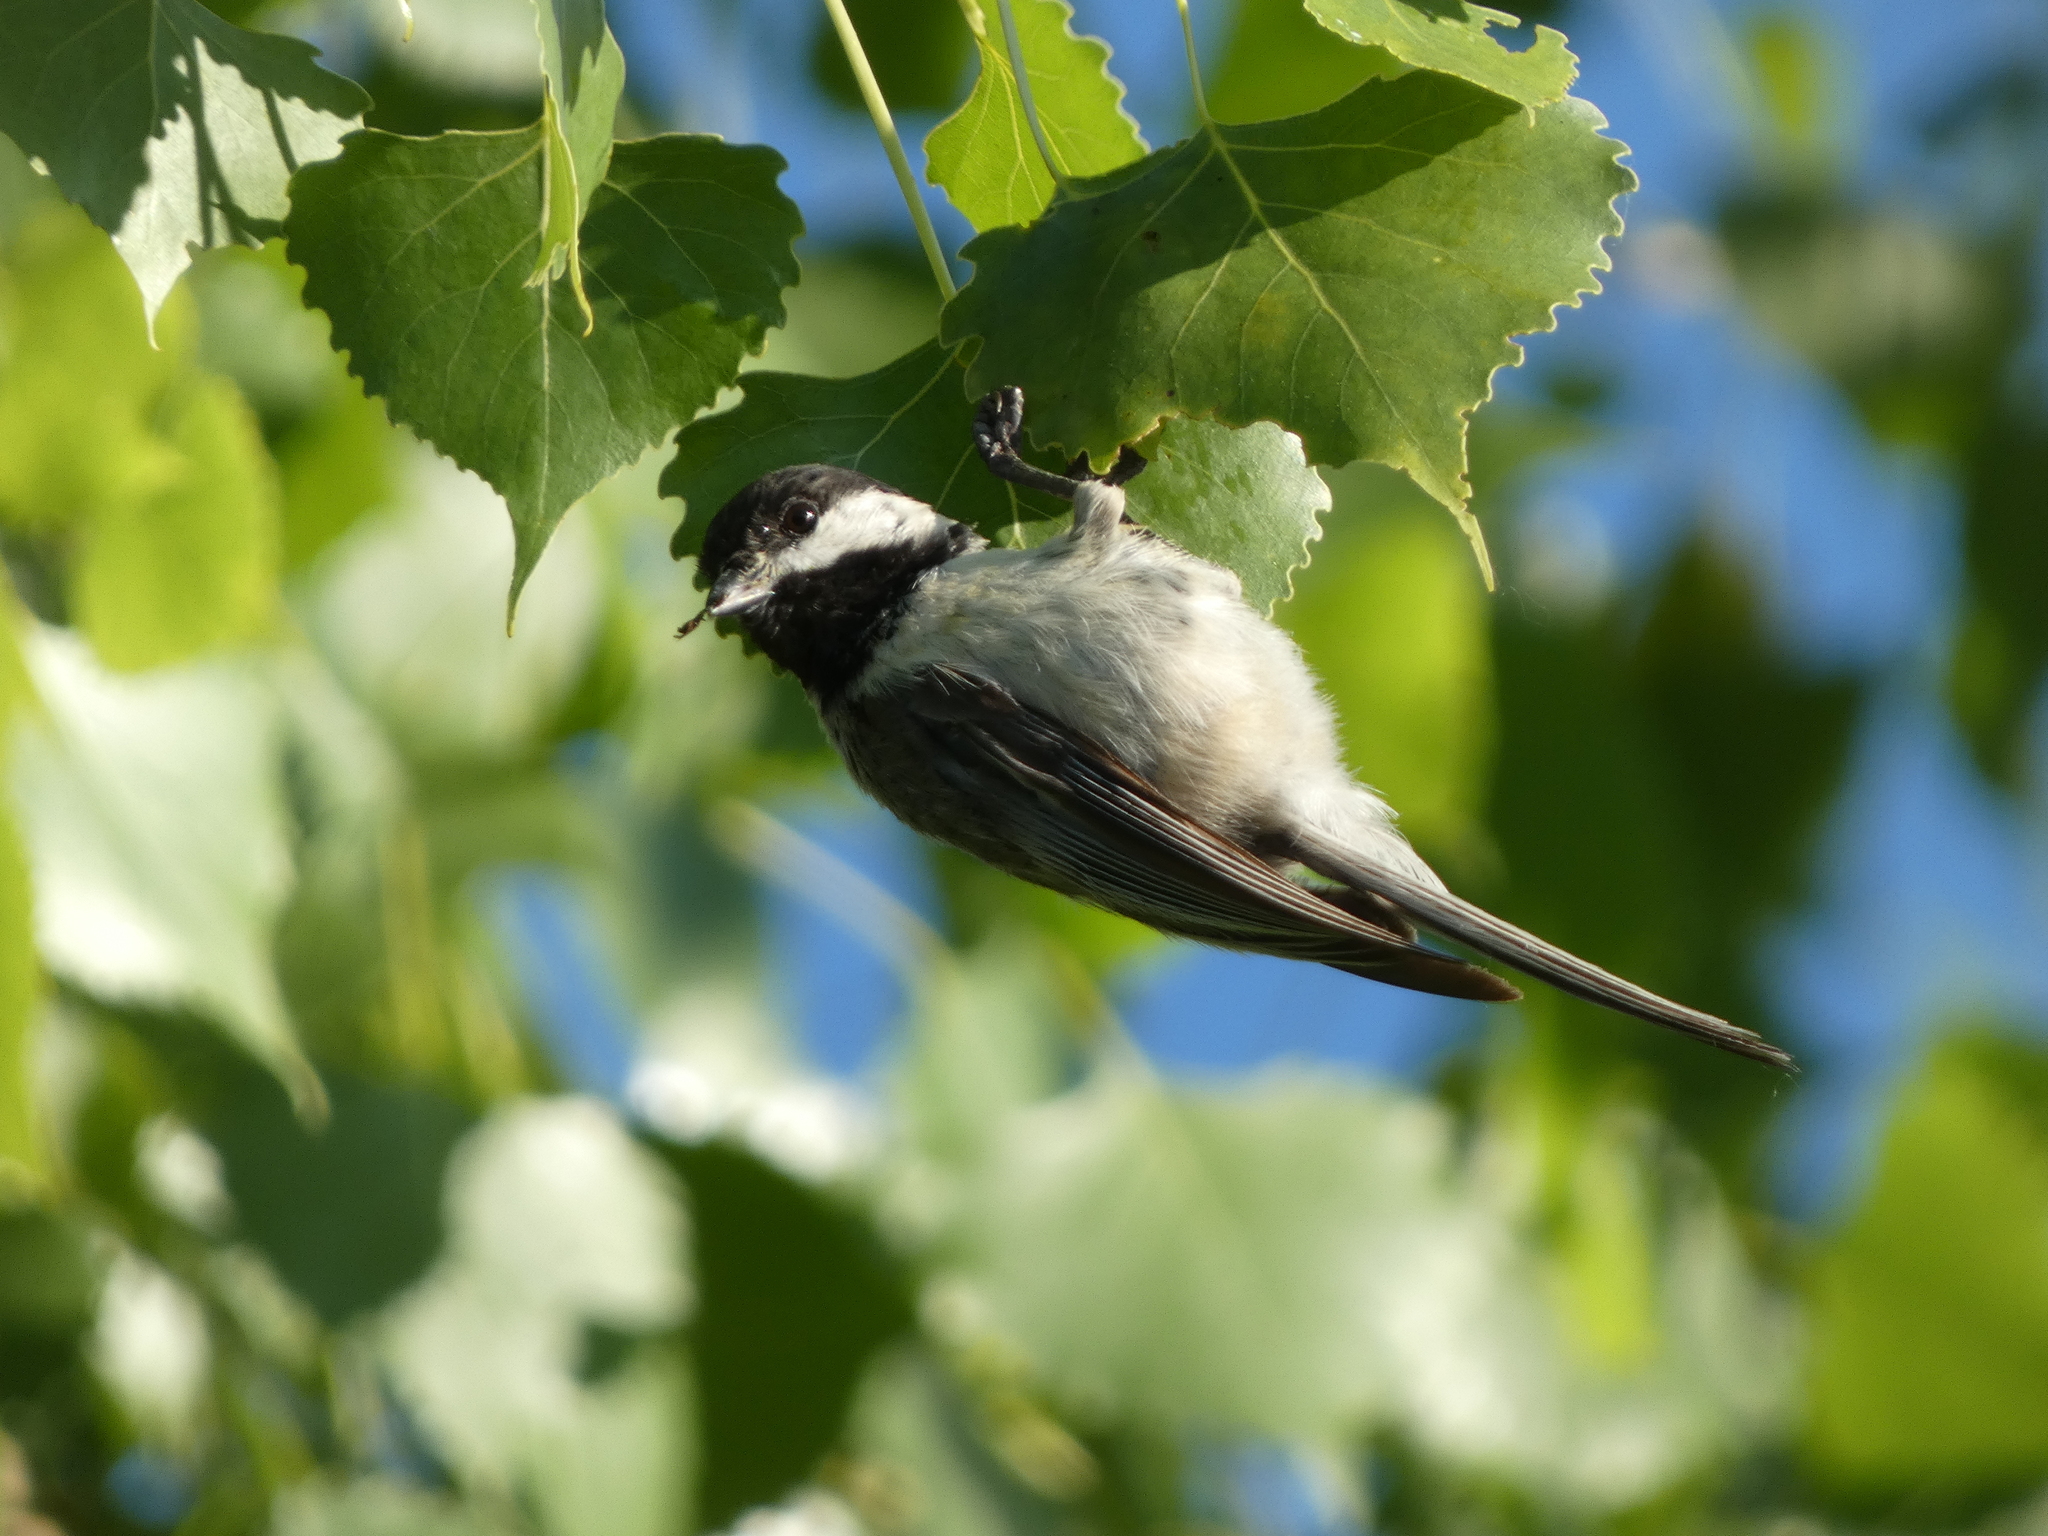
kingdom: Animalia
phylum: Chordata
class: Aves
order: Passeriformes
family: Paridae
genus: Poecile
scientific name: Poecile atricapillus
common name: Black-capped chickadee
